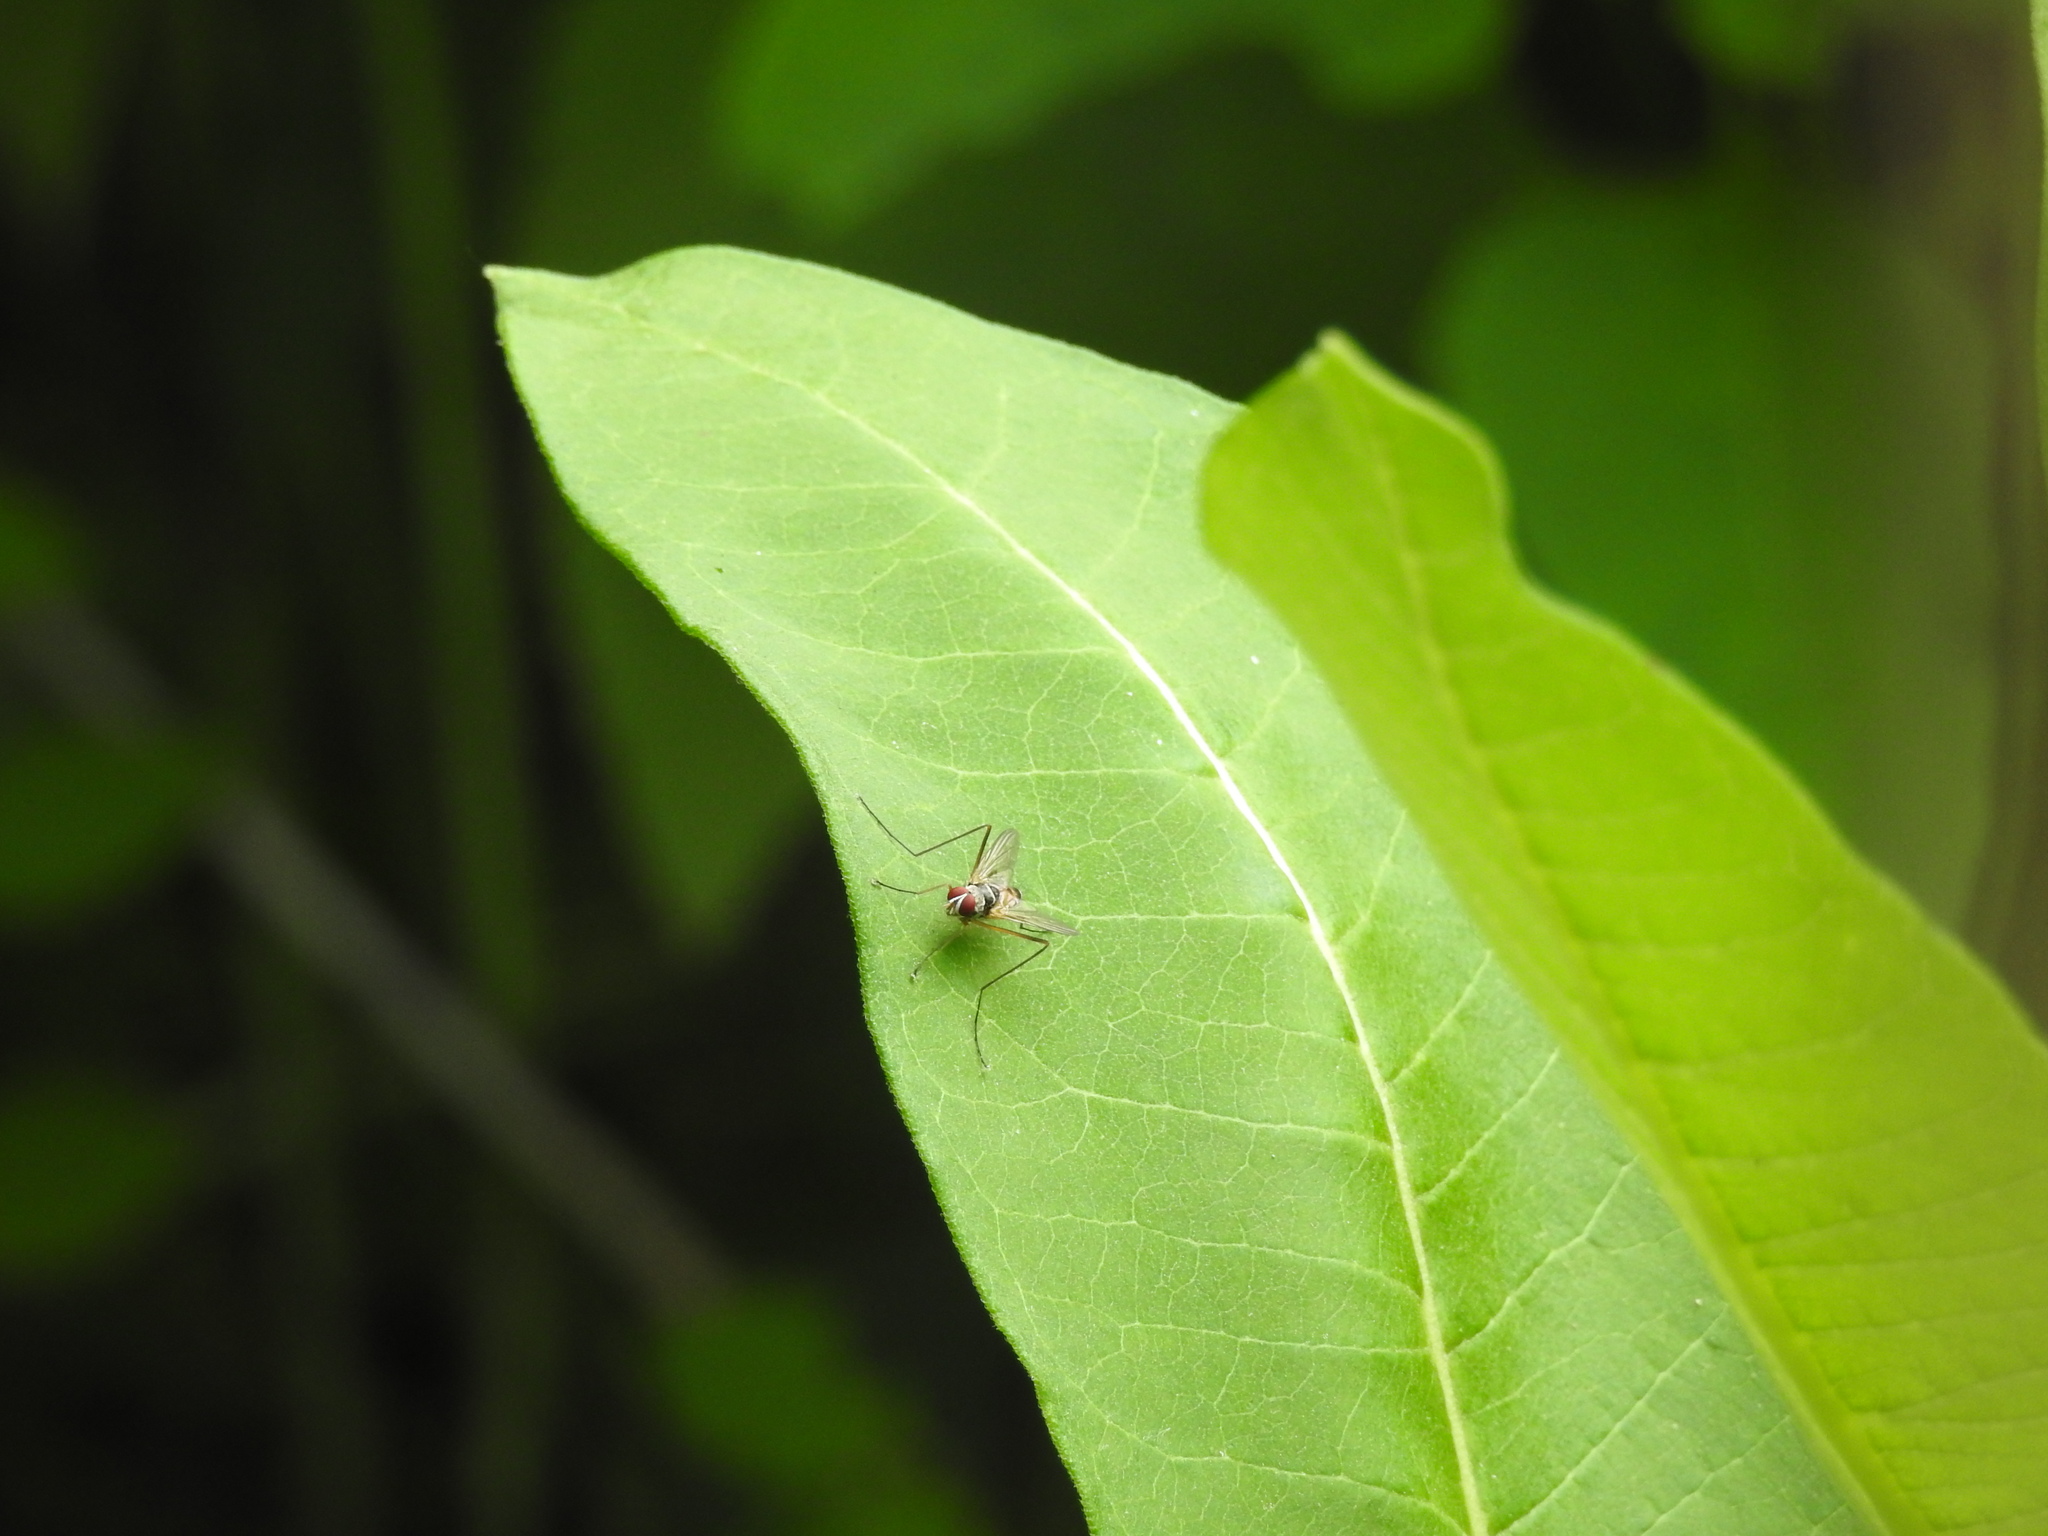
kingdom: Animalia
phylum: Arthropoda
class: Insecta
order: Diptera
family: Tachinidae
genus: Cholomyia
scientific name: Cholomyia inaequipes
